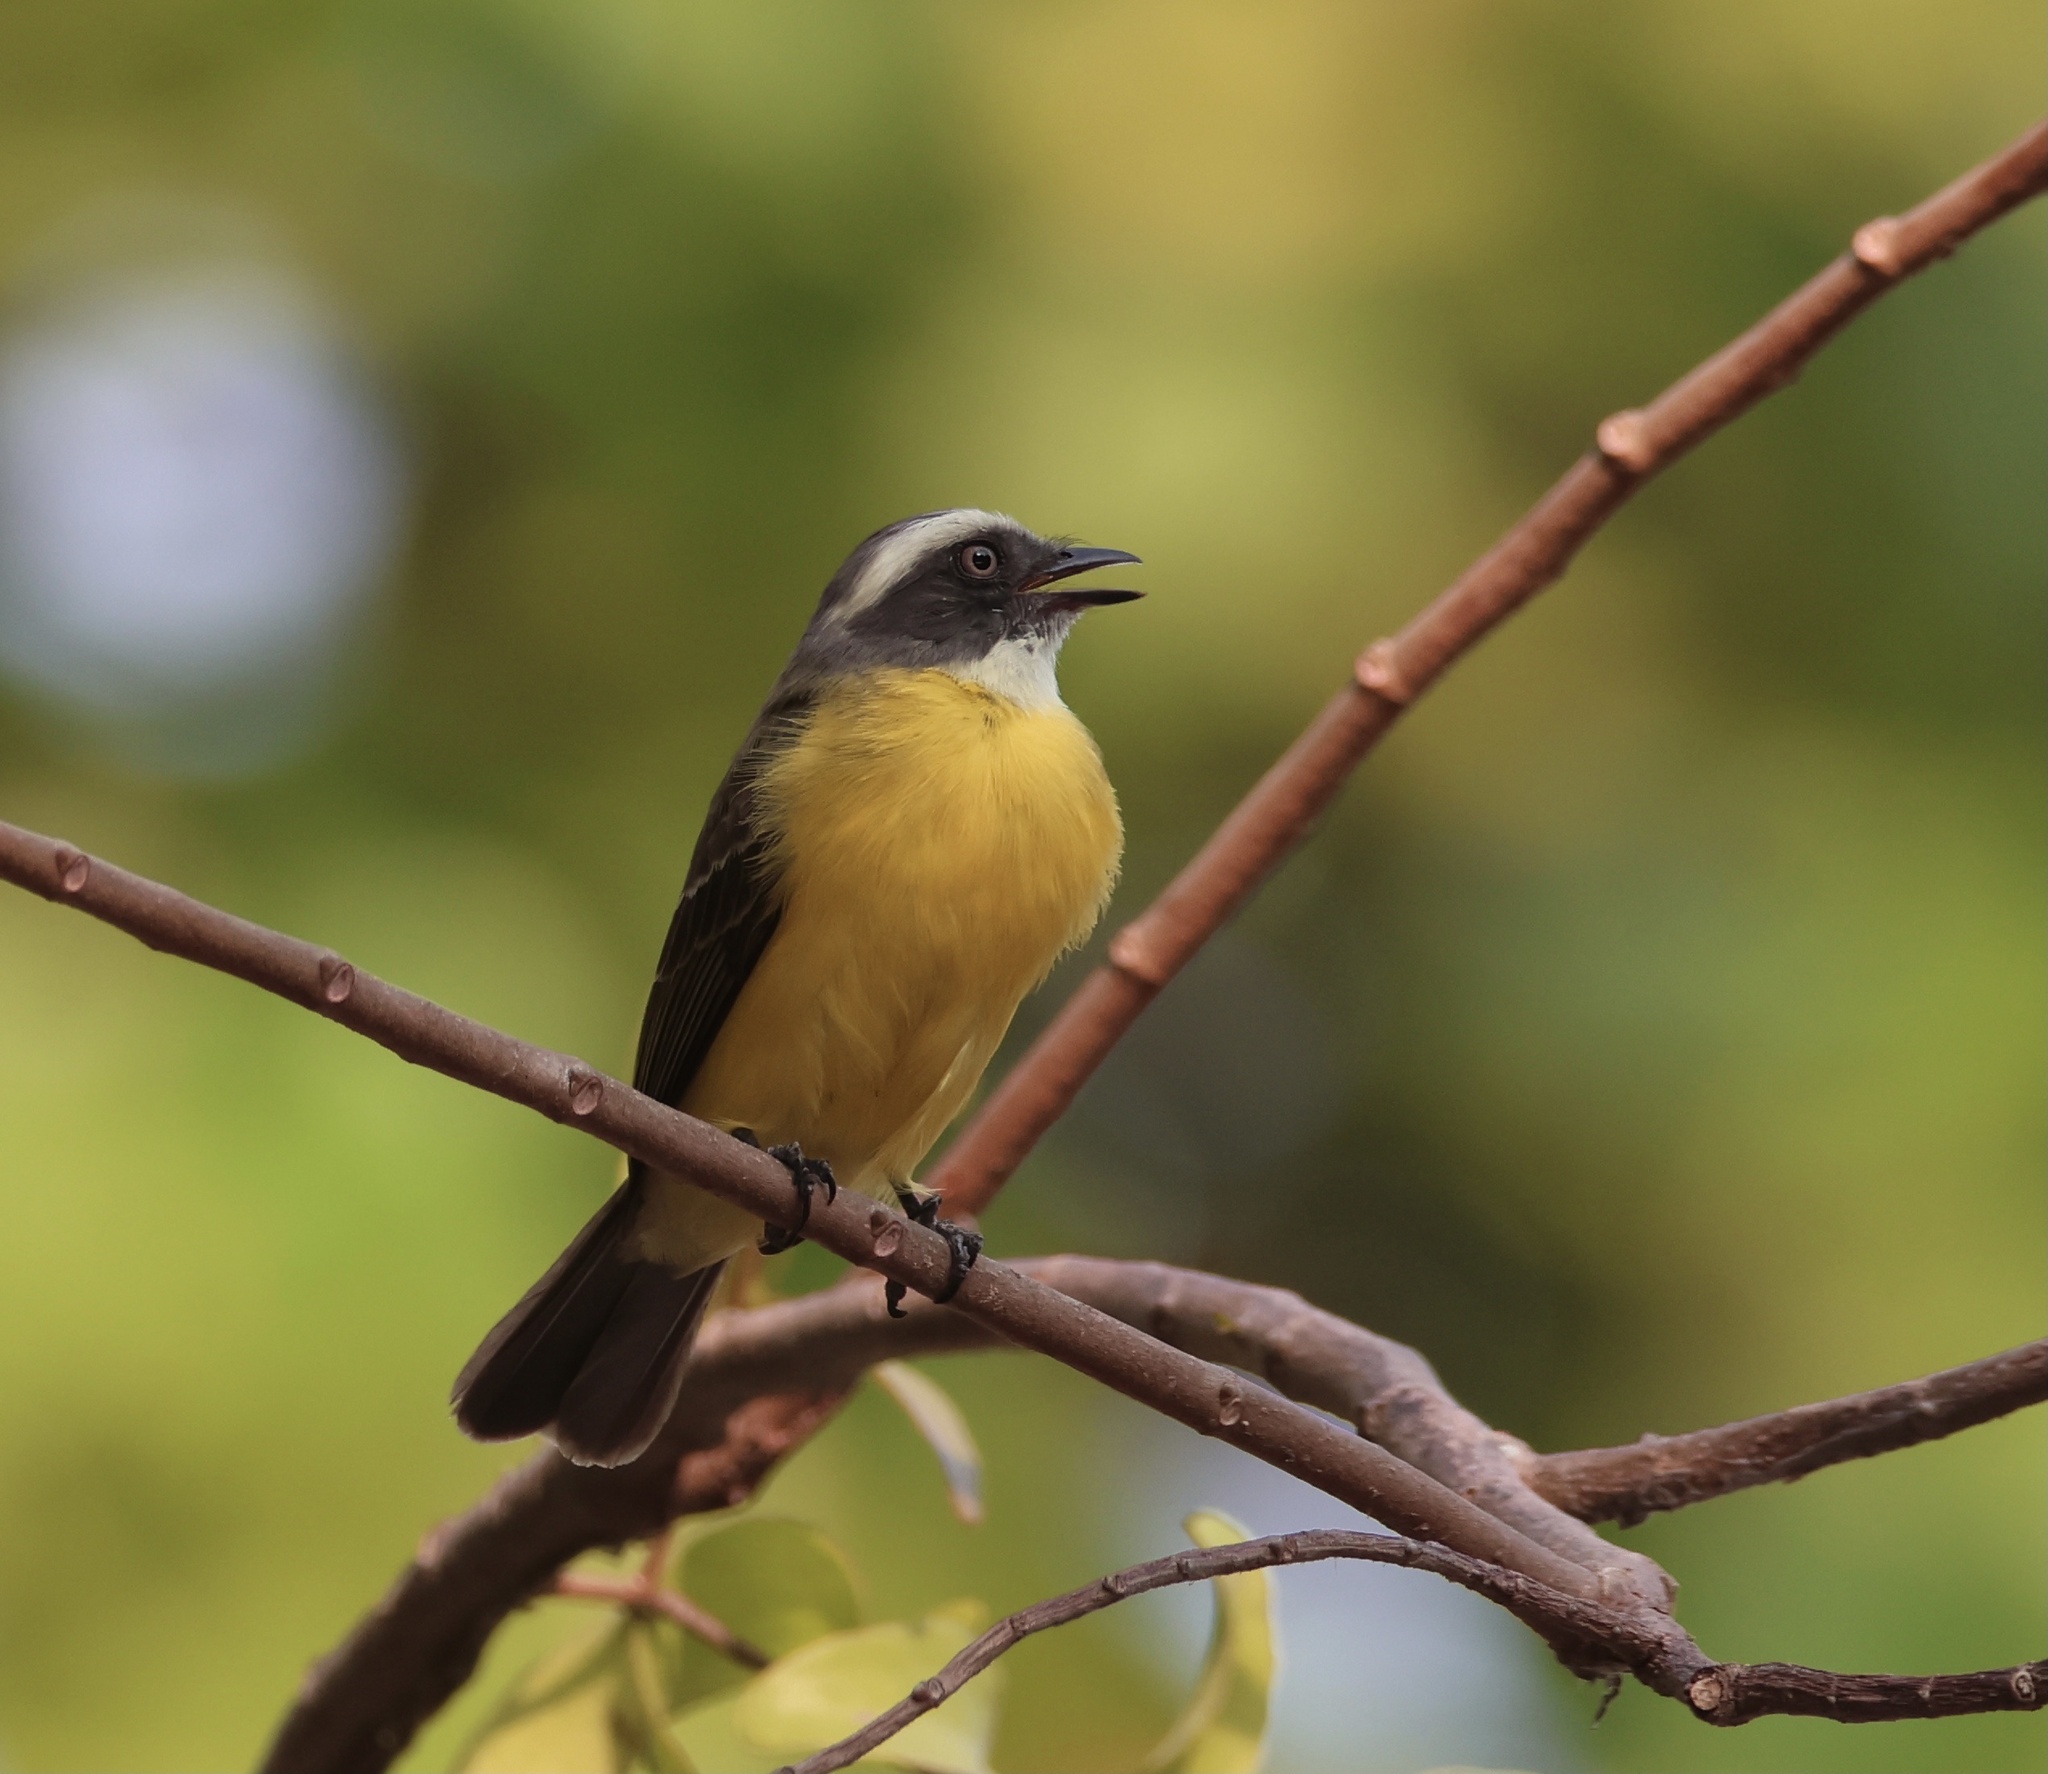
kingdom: Animalia
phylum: Chordata
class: Aves
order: Passeriformes
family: Tyrannidae
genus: Myiozetetes
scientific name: Myiozetetes similis
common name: Social flycatcher
